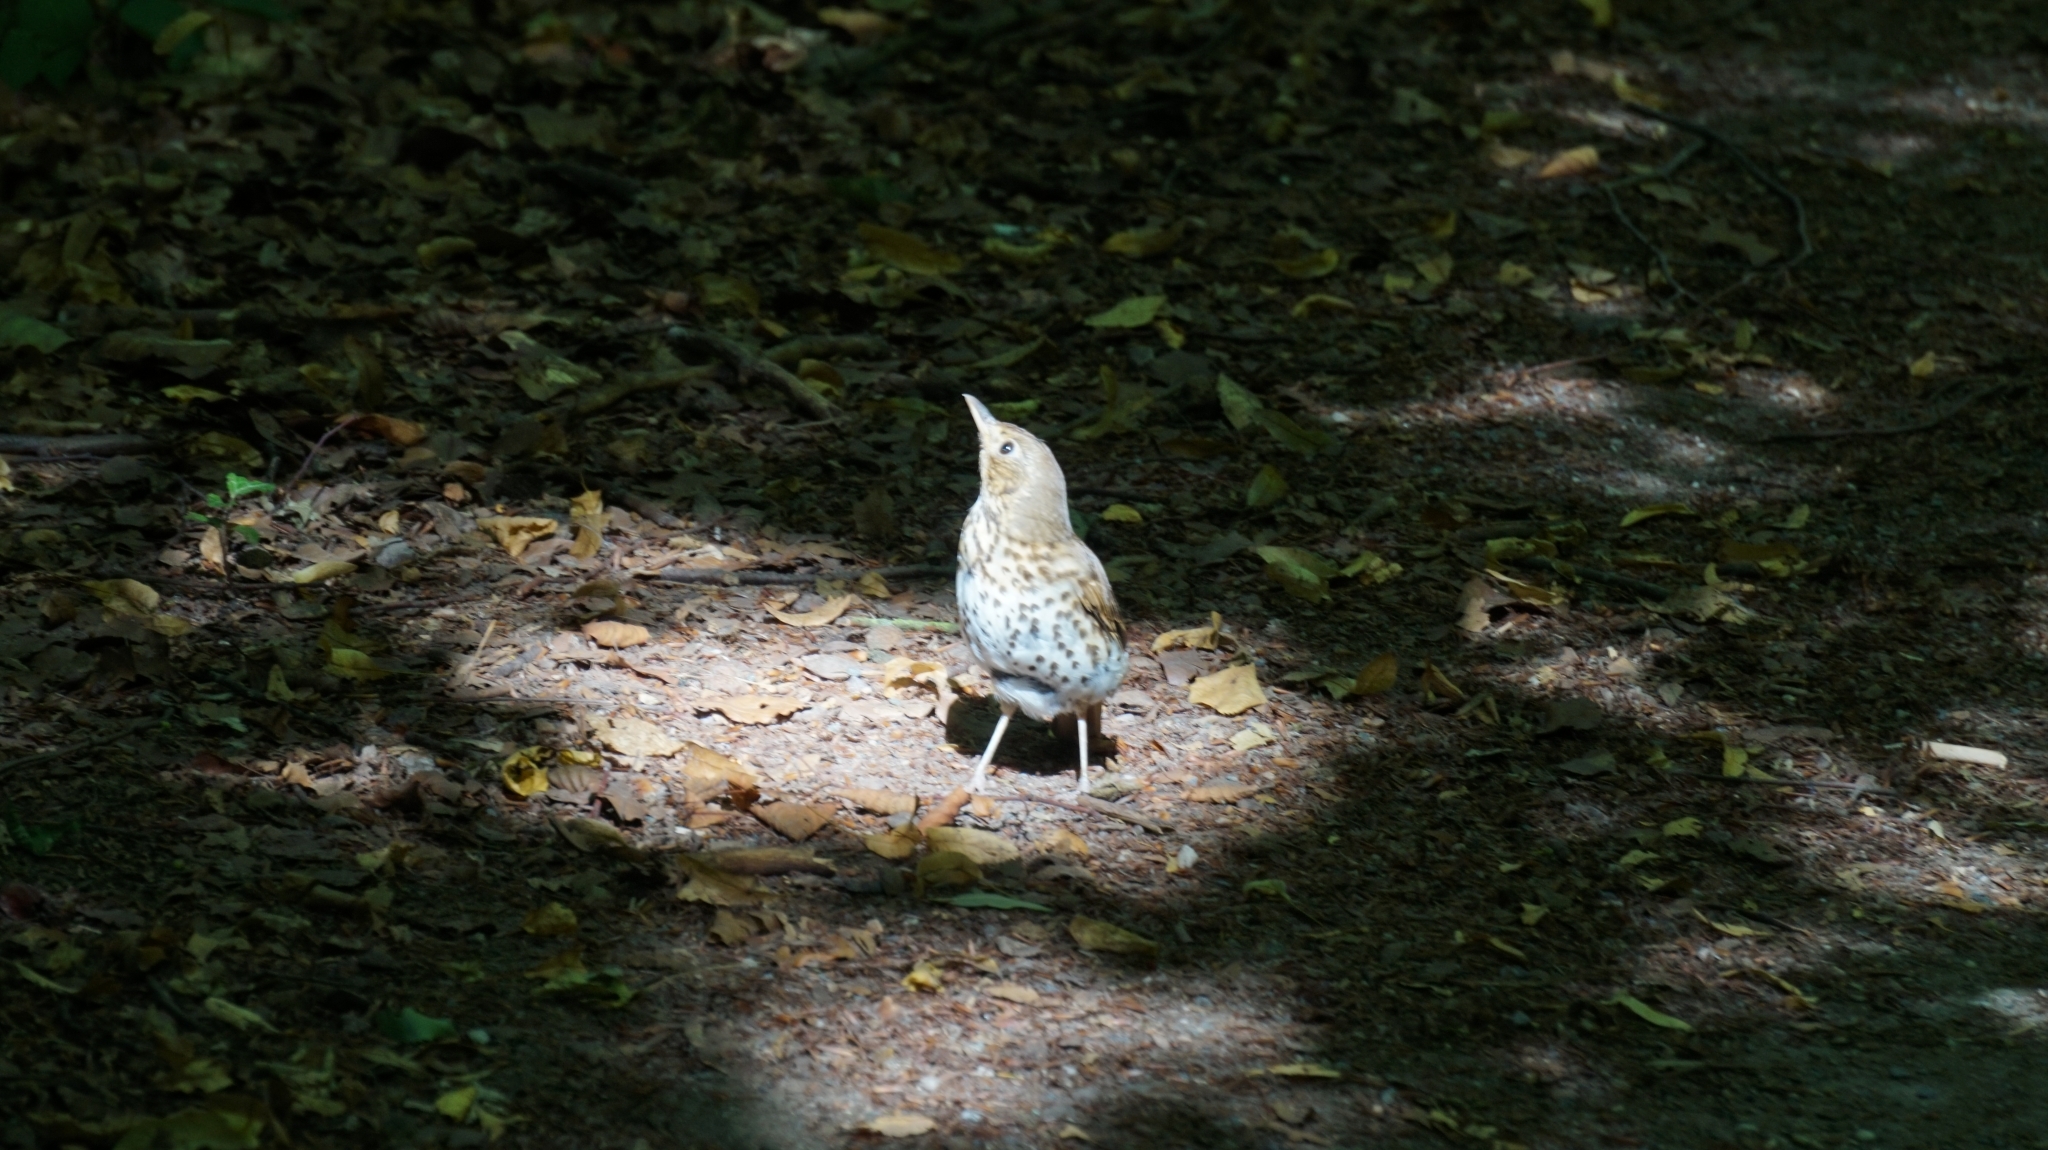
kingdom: Animalia
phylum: Chordata
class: Aves
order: Passeriformes
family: Turdidae
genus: Turdus
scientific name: Turdus philomelos
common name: Song thrush
